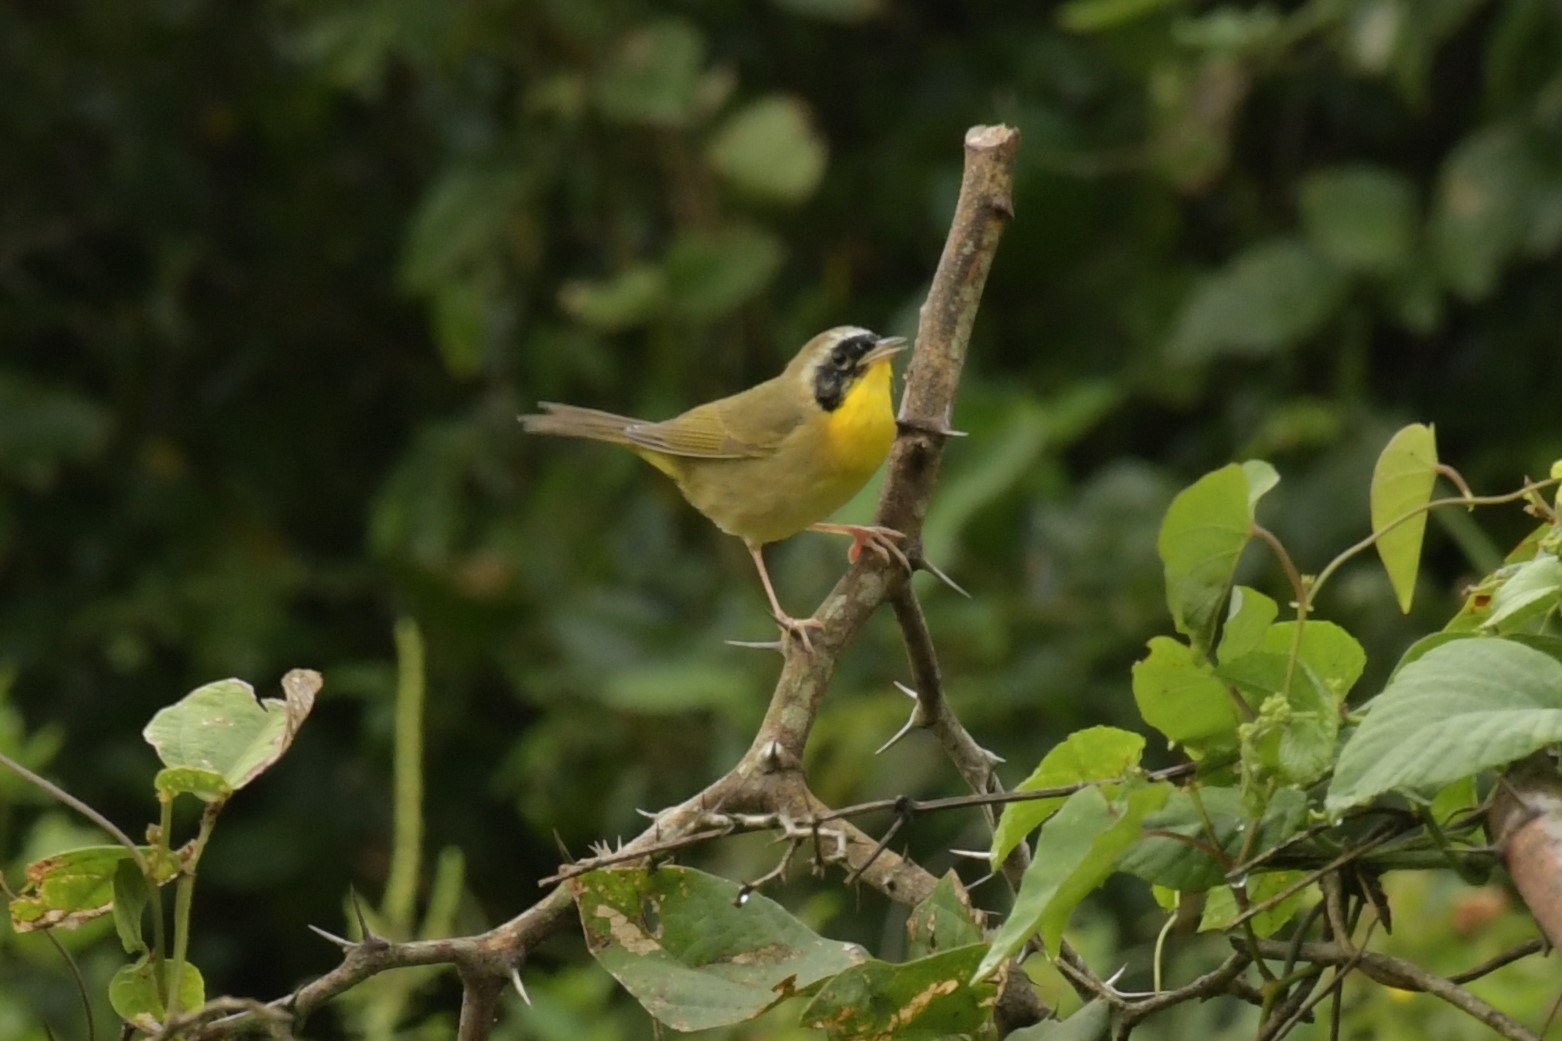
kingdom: Animalia
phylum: Chordata
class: Aves
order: Passeriformes
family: Parulidae
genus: Geothlypis
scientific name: Geothlypis trichas
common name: Common yellowthroat
